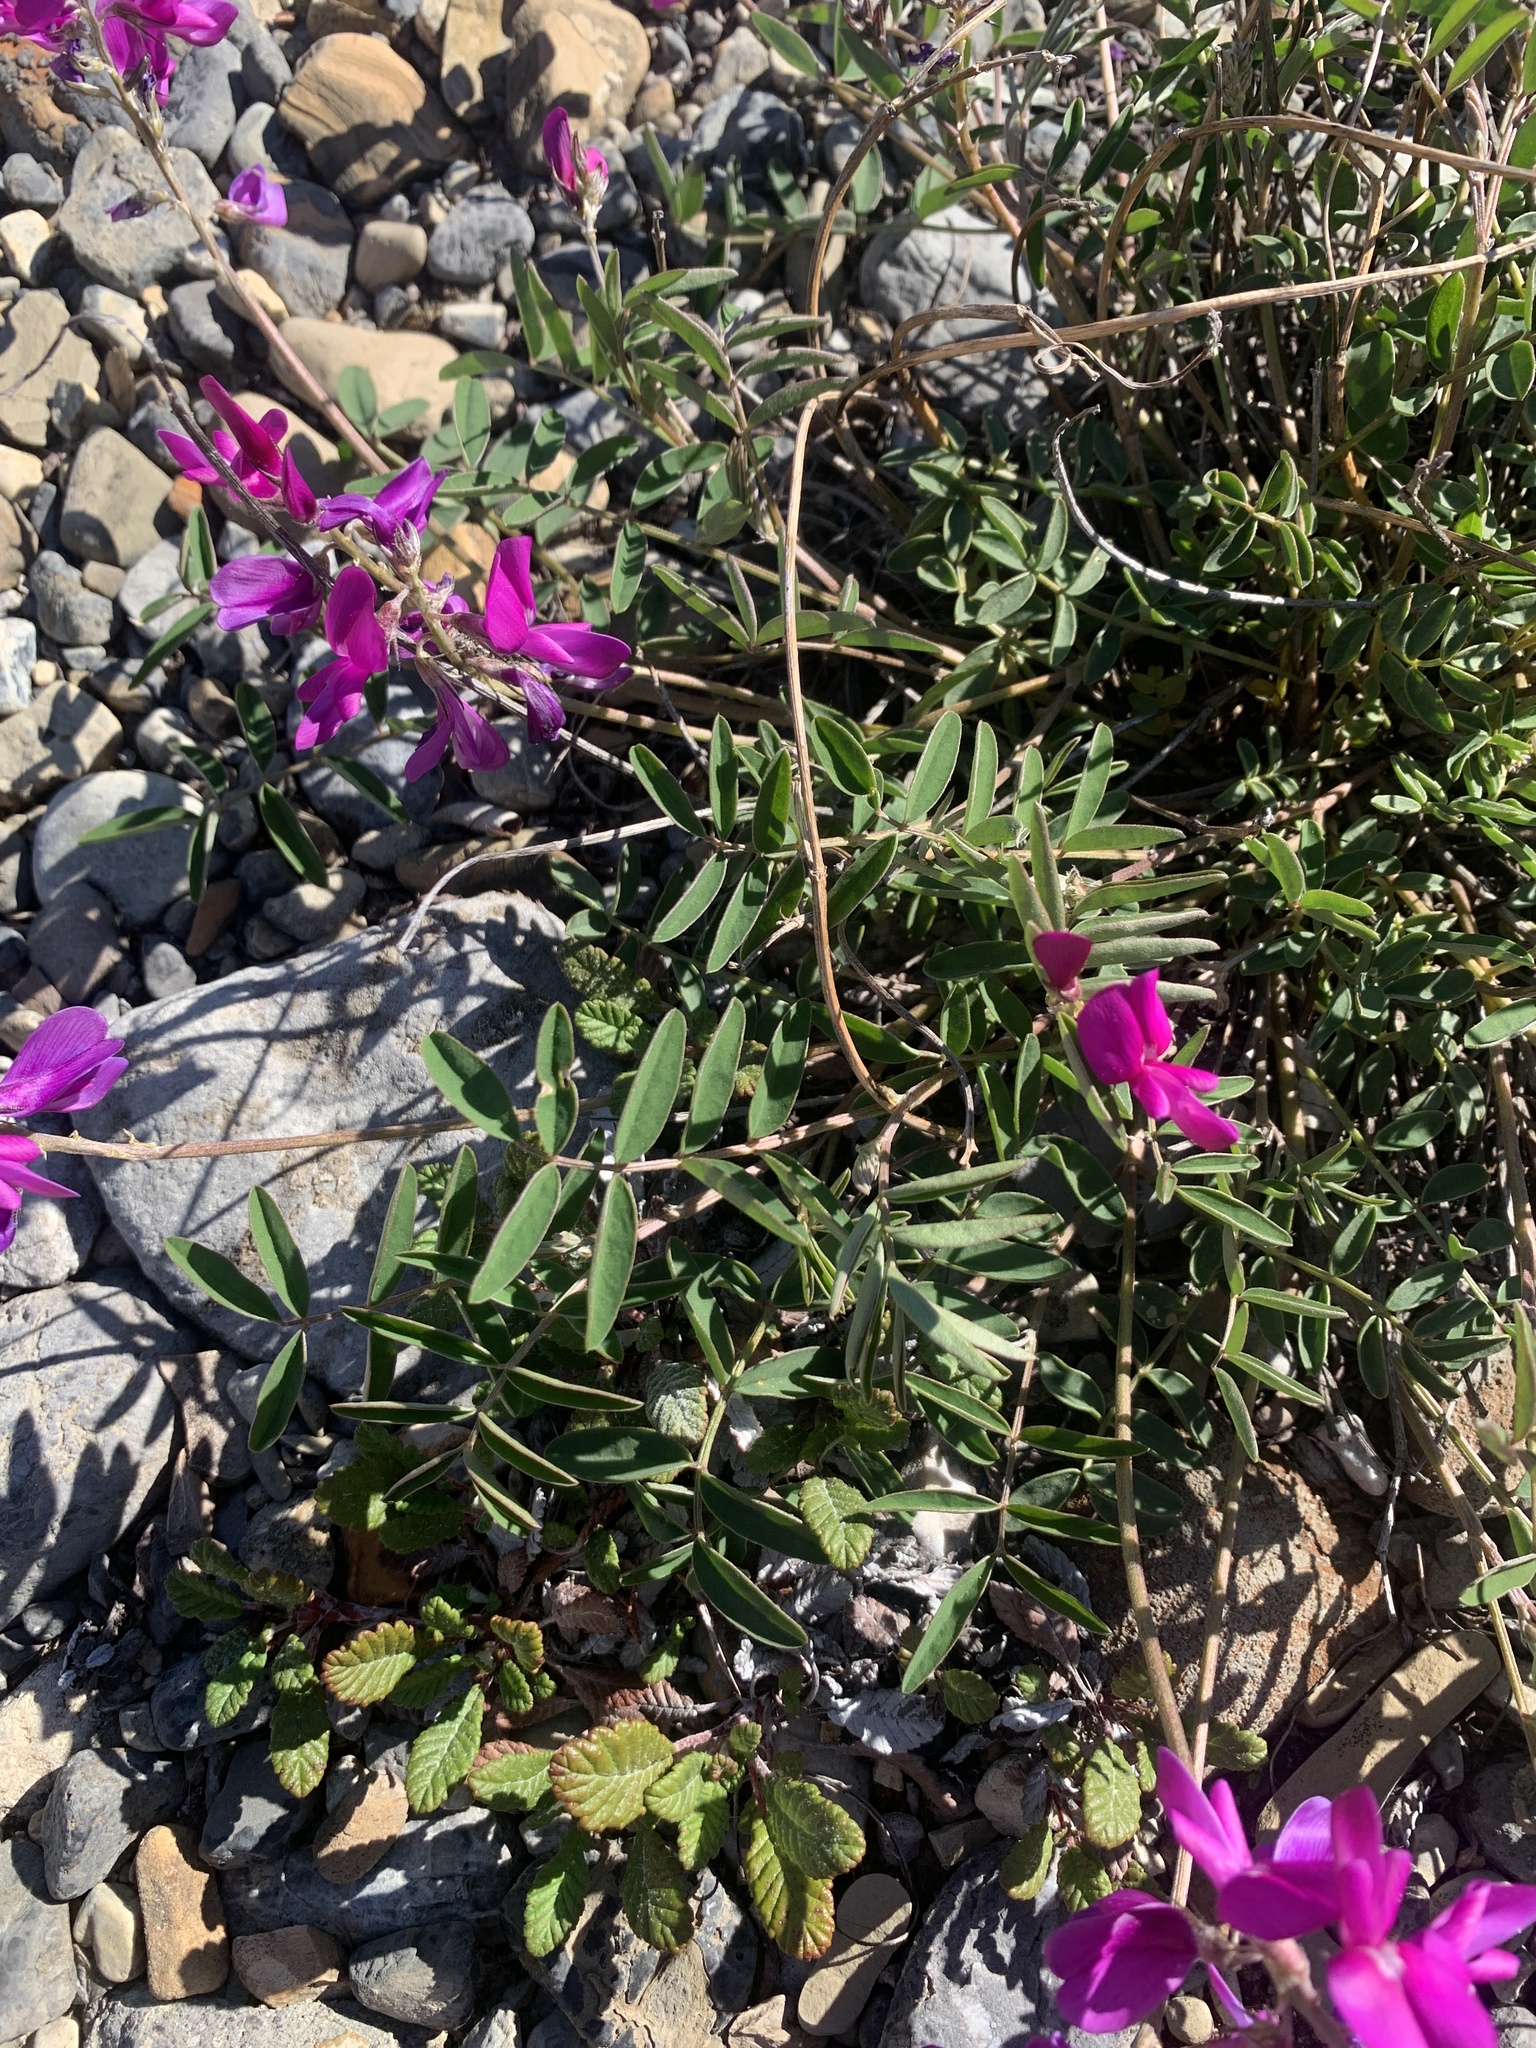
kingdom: Plantae
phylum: Tracheophyta
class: Magnoliopsida
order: Fabales
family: Fabaceae
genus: Hedysarum
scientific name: Hedysarum boreale
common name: Northern sweet-vetch
